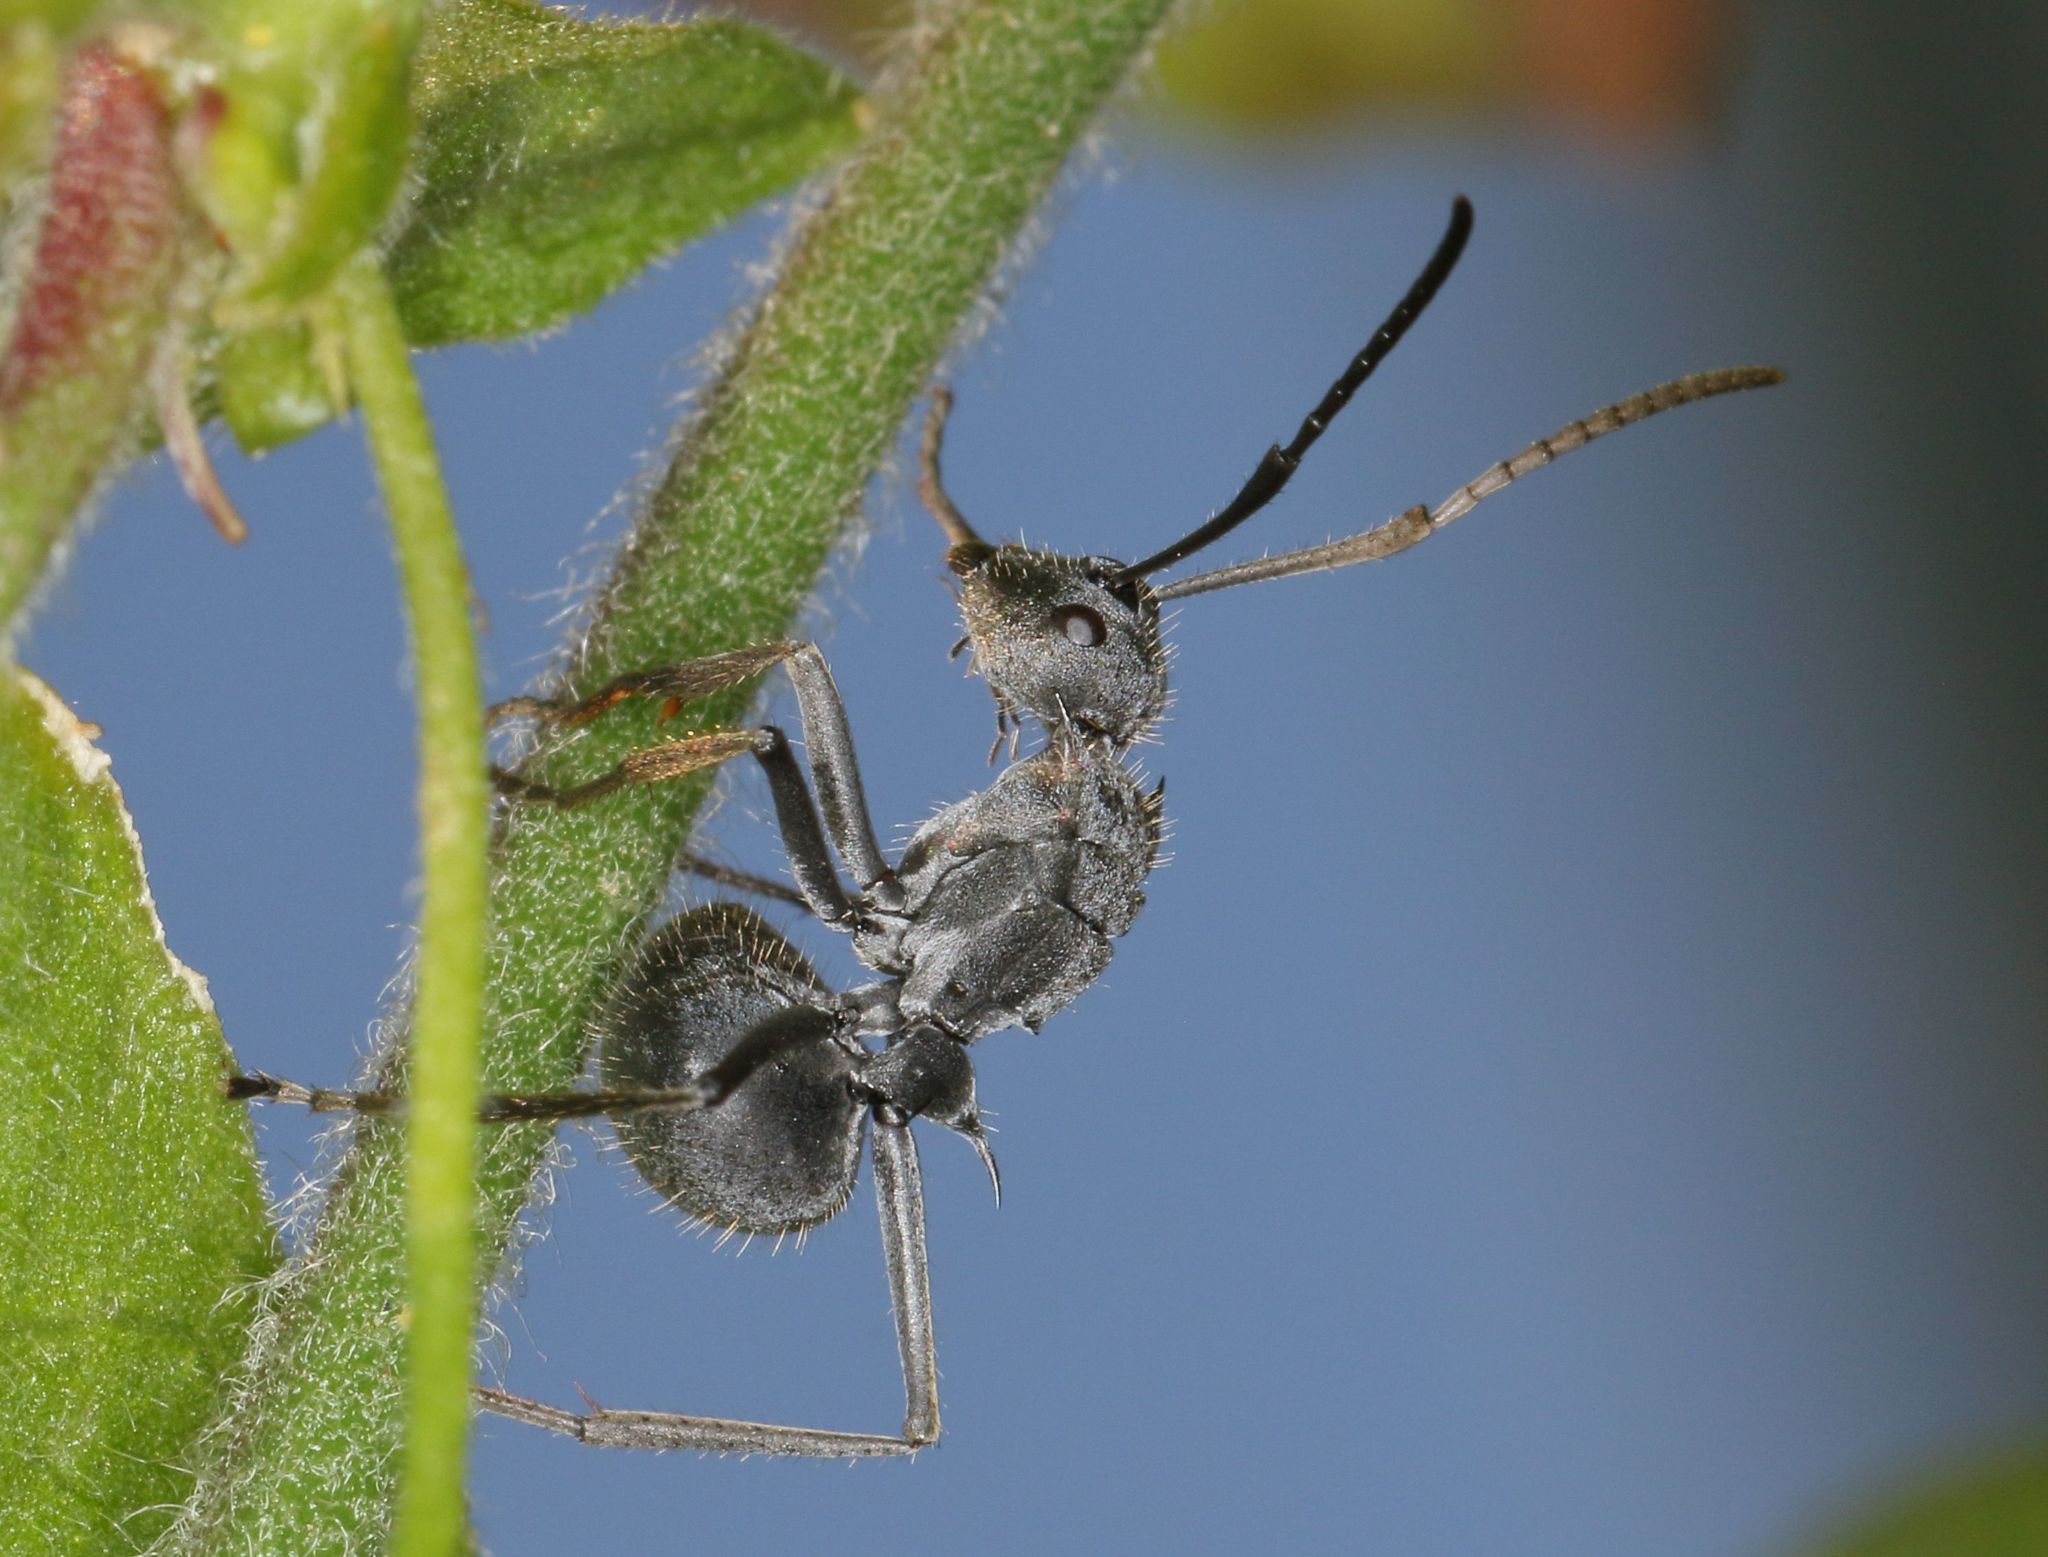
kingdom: Animalia
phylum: Arthropoda
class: Insecta
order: Hymenoptera
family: Formicidae
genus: Polyrhachis
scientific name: Polyrhachis schistacea
